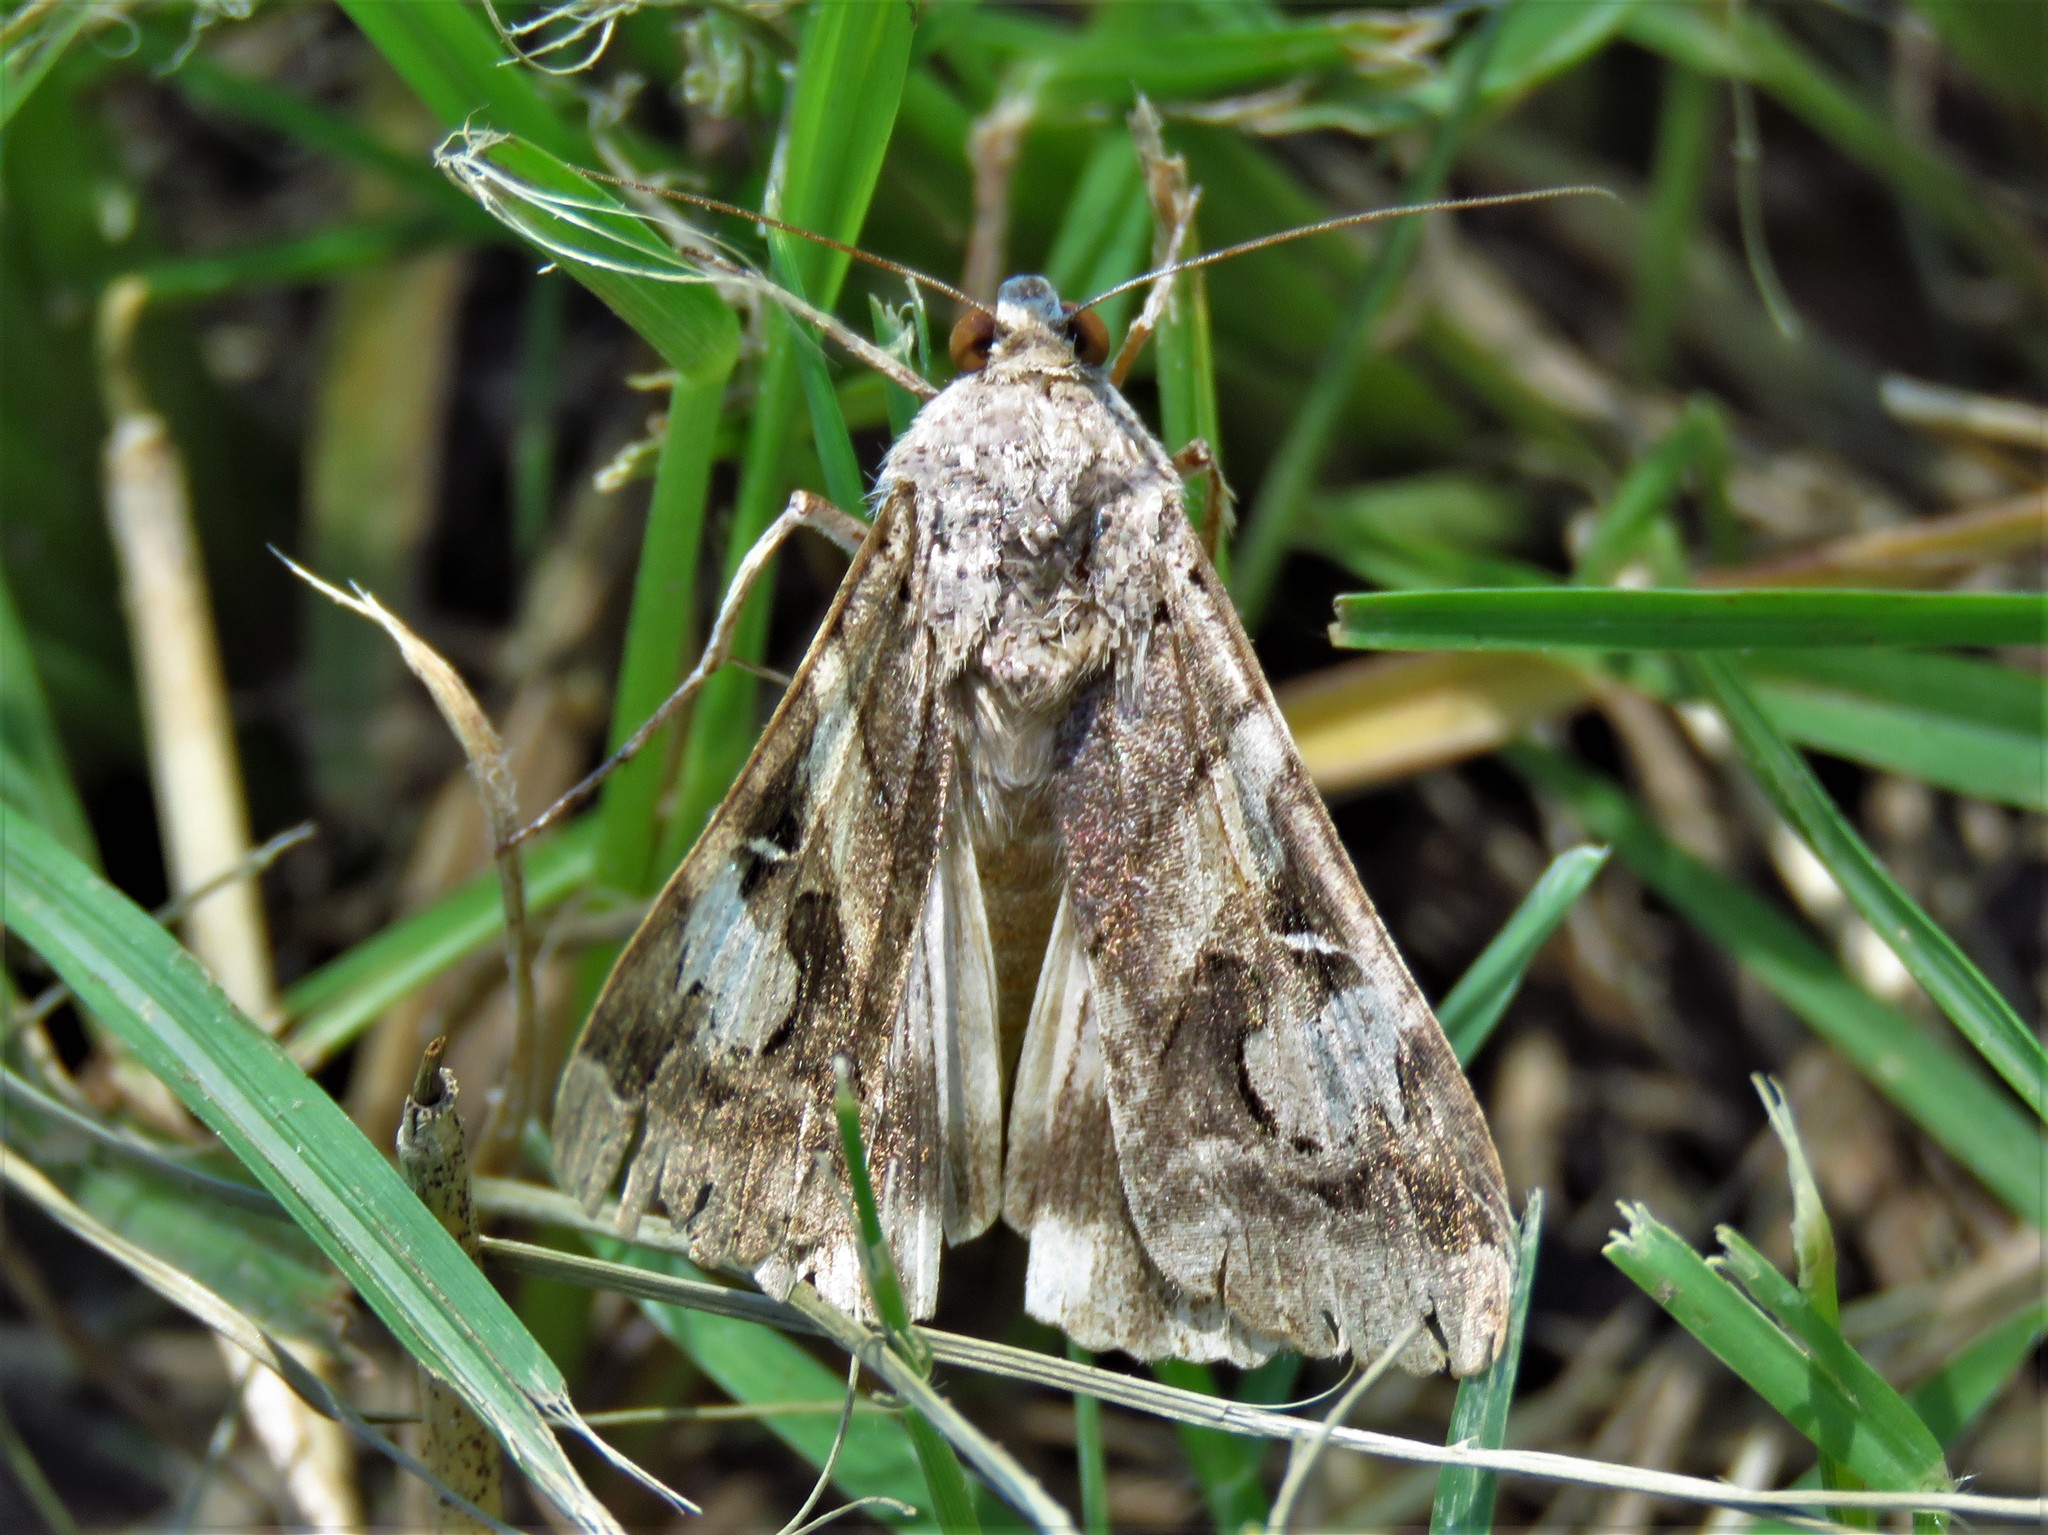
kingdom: Animalia
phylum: Arthropoda
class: Insecta
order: Lepidoptera
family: Erebidae
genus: Melipotis
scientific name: Melipotis jucunda
